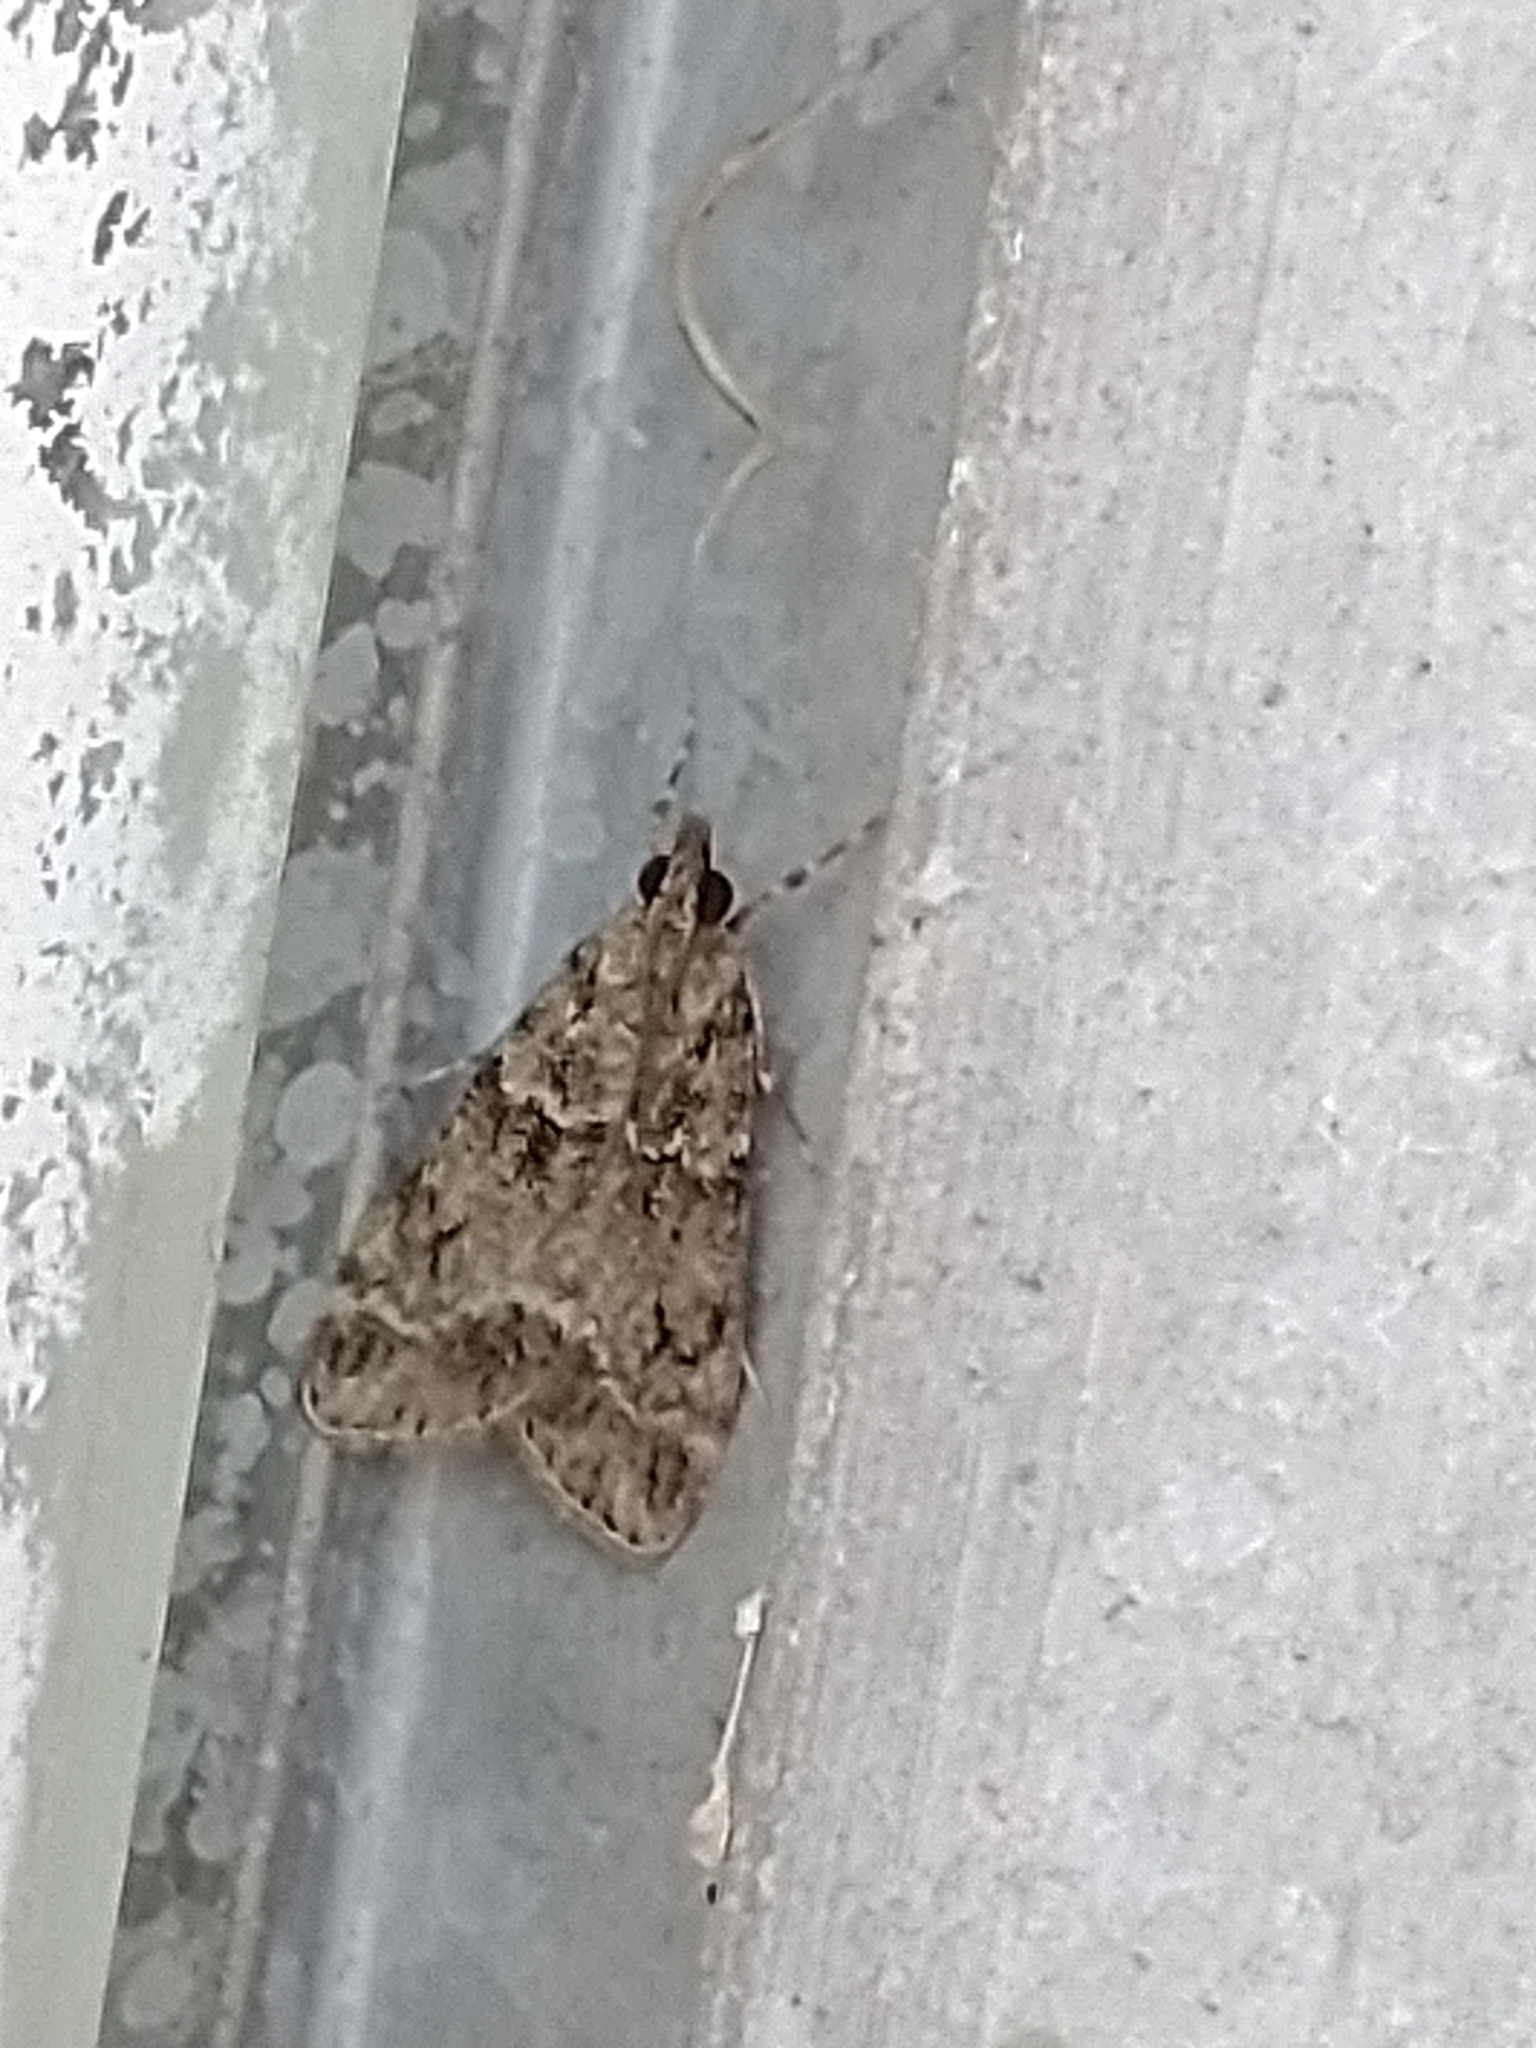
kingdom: Animalia
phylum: Arthropoda
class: Insecta
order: Lepidoptera
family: Crambidae
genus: Eudonia
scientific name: Eudonia mercurella
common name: Small grey
